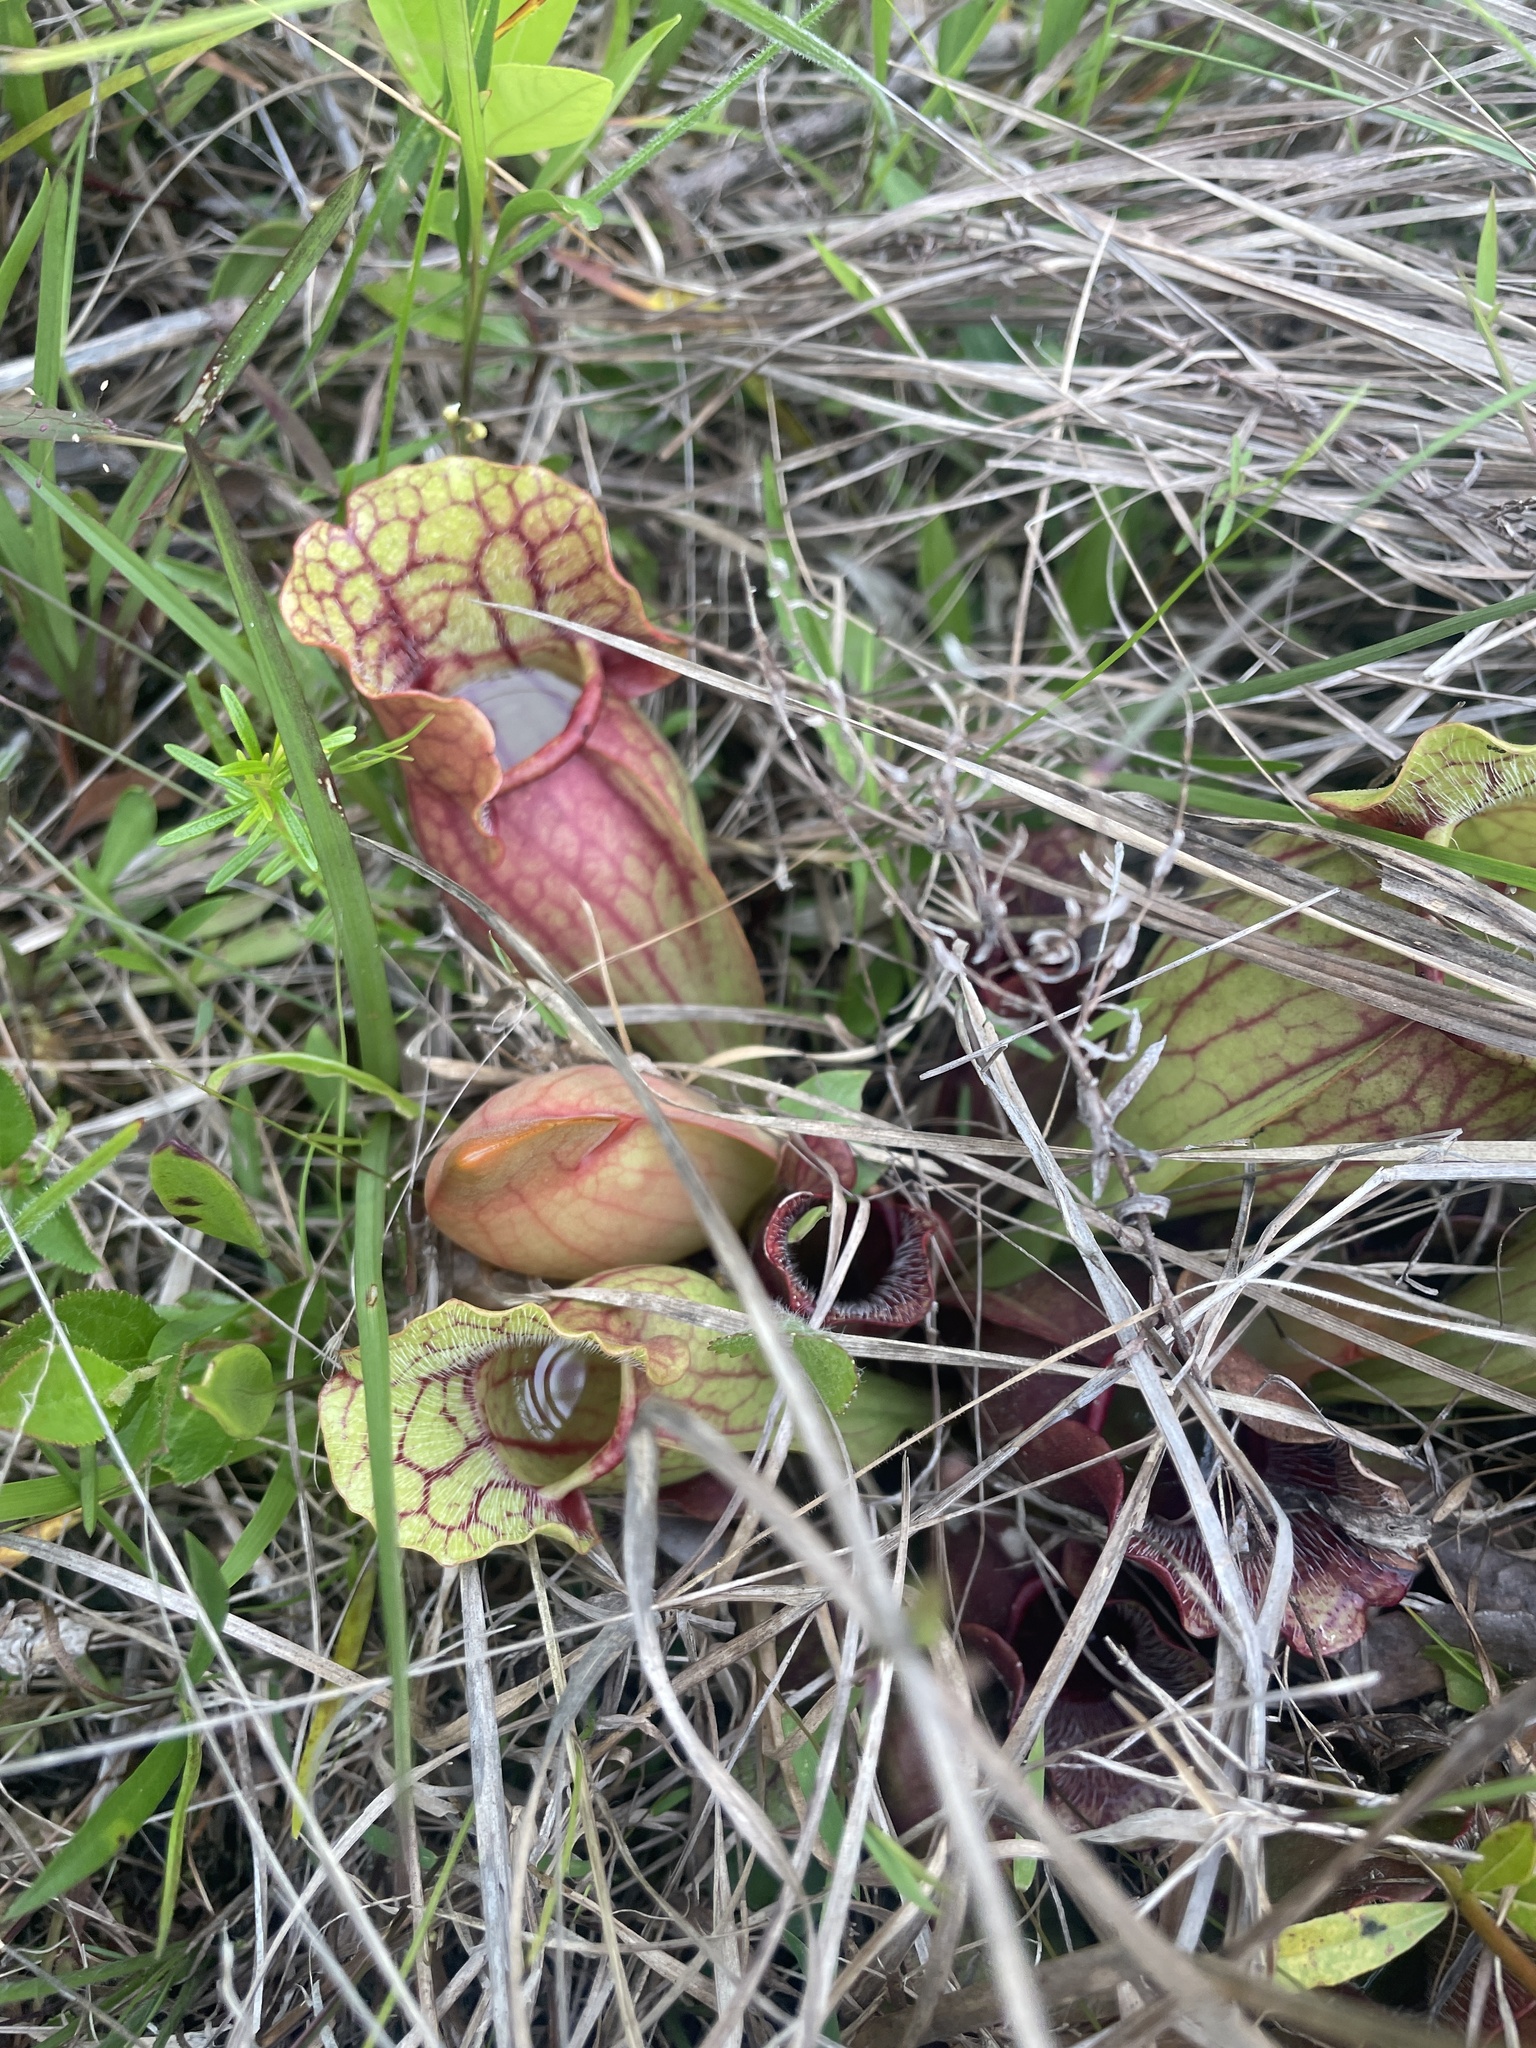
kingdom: Plantae
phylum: Tracheophyta
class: Magnoliopsida
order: Ericales
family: Sarraceniaceae
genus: Sarracenia
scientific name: Sarracenia purpurea
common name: Pitcherplant
